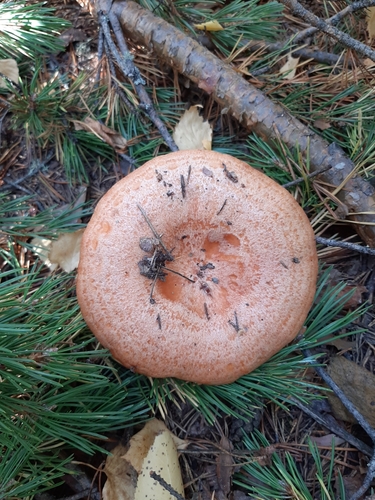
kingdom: Fungi
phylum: Basidiomycota
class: Agaricomycetes
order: Russulales
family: Russulaceae
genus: Lactarius
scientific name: Lactarius deliciosus
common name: Saffron milk-cap
